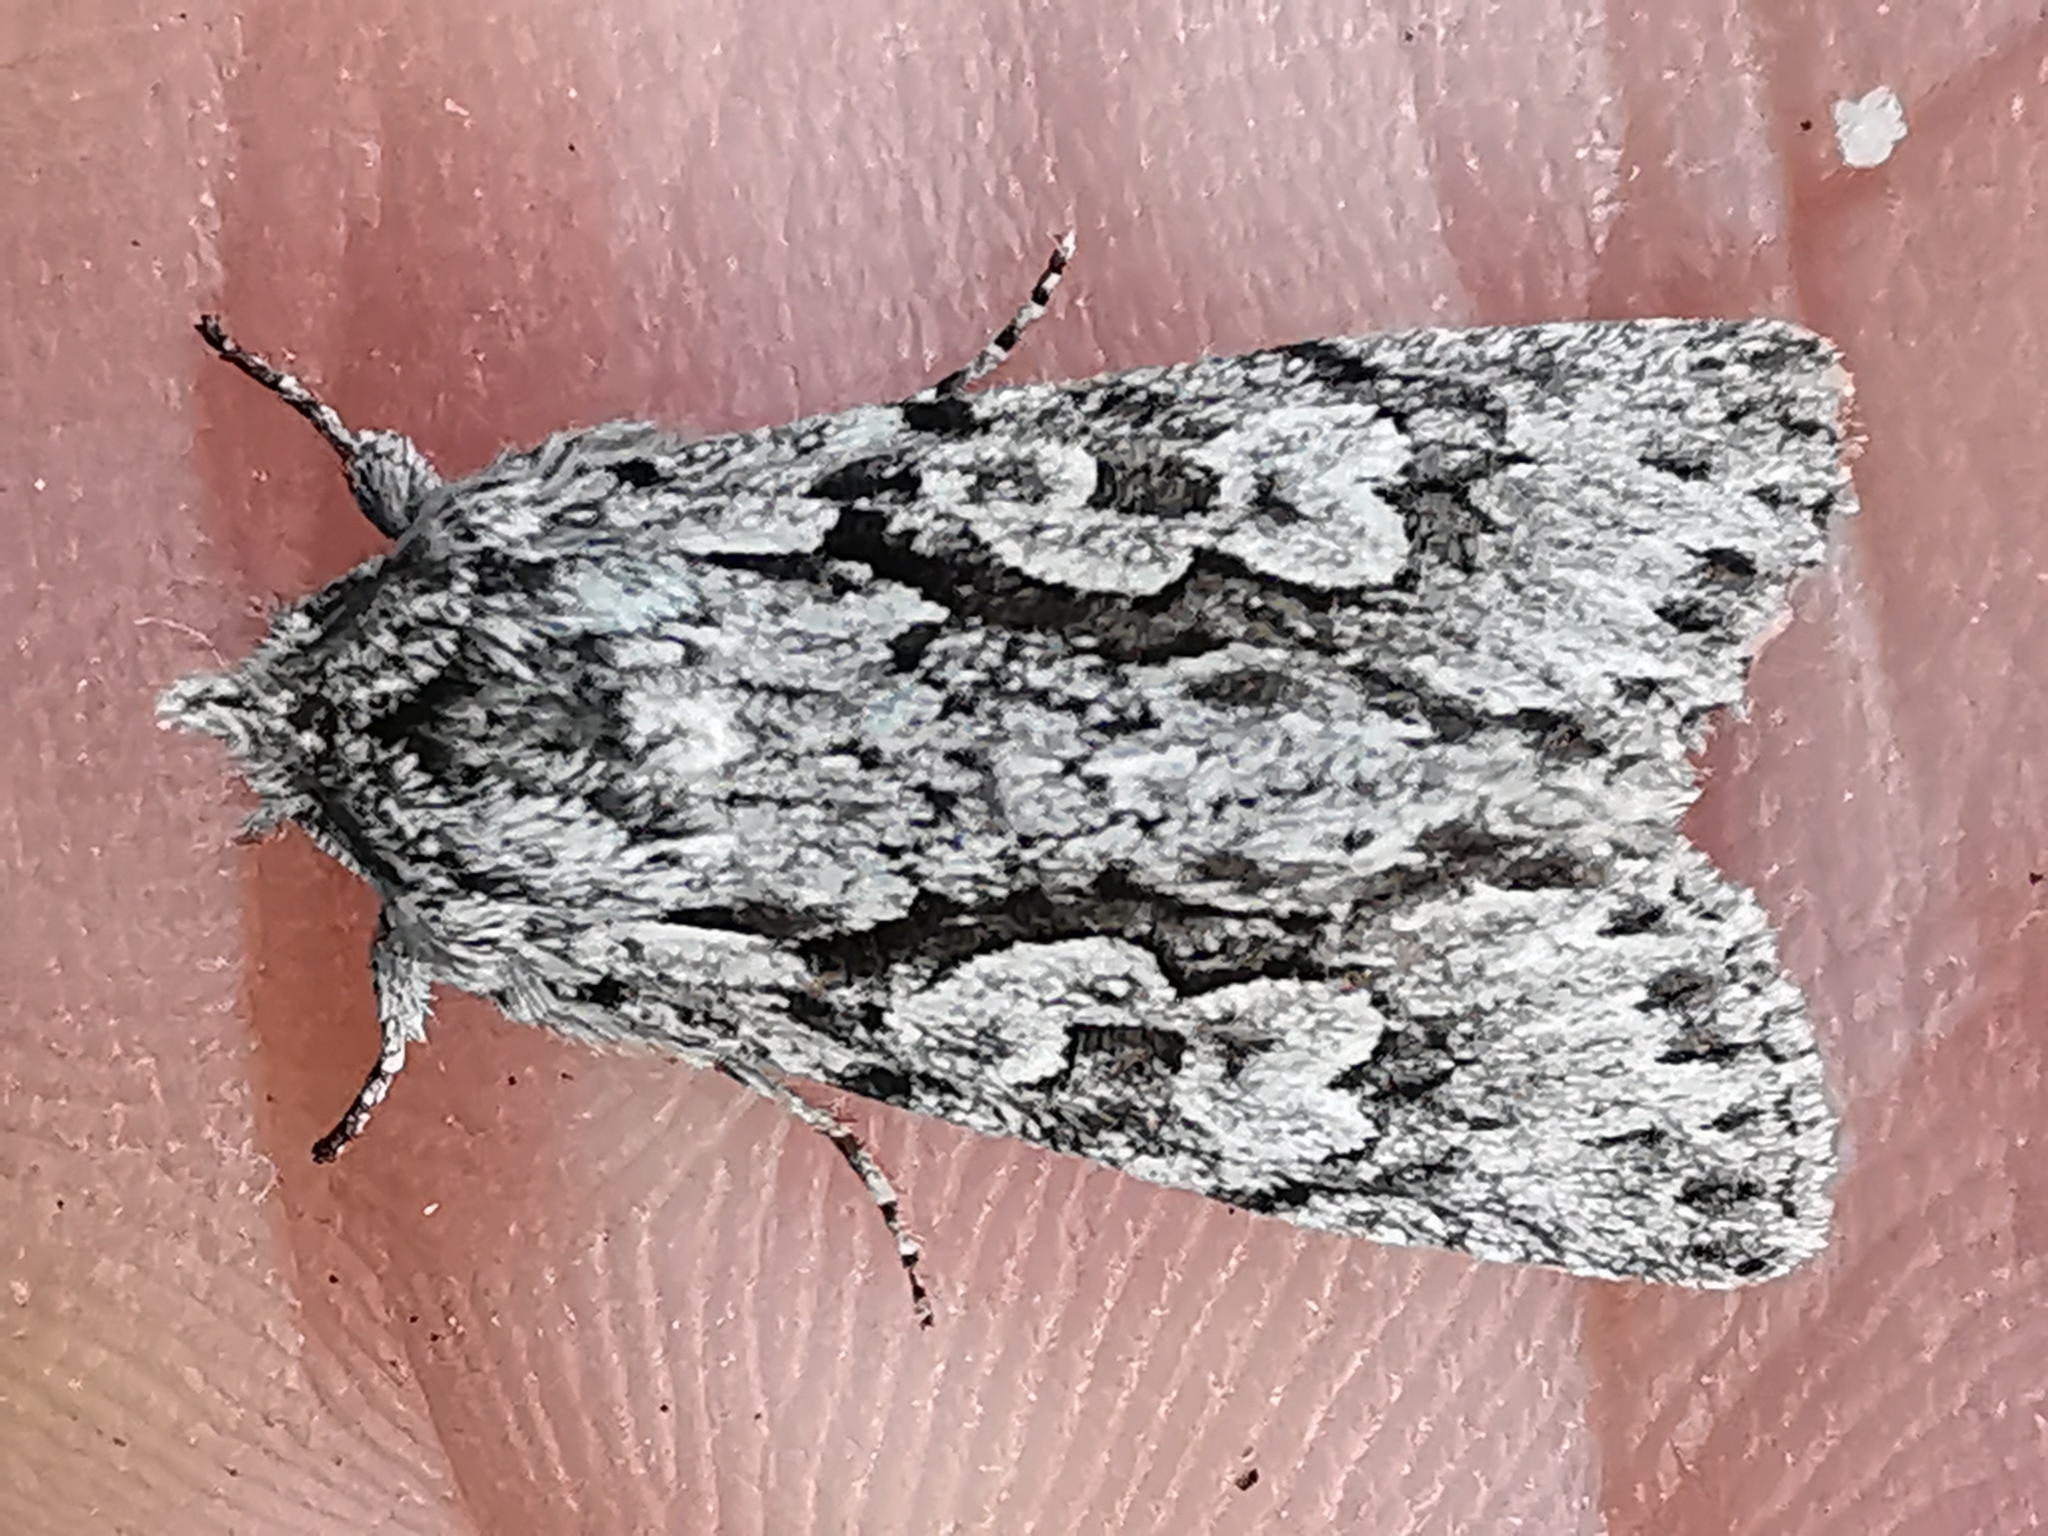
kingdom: Animalia
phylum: Arthropoda
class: Insecta
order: Lepidoptera
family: Noctuidae
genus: Xylocampa
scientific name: Xylocampa areola
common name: Early grey
